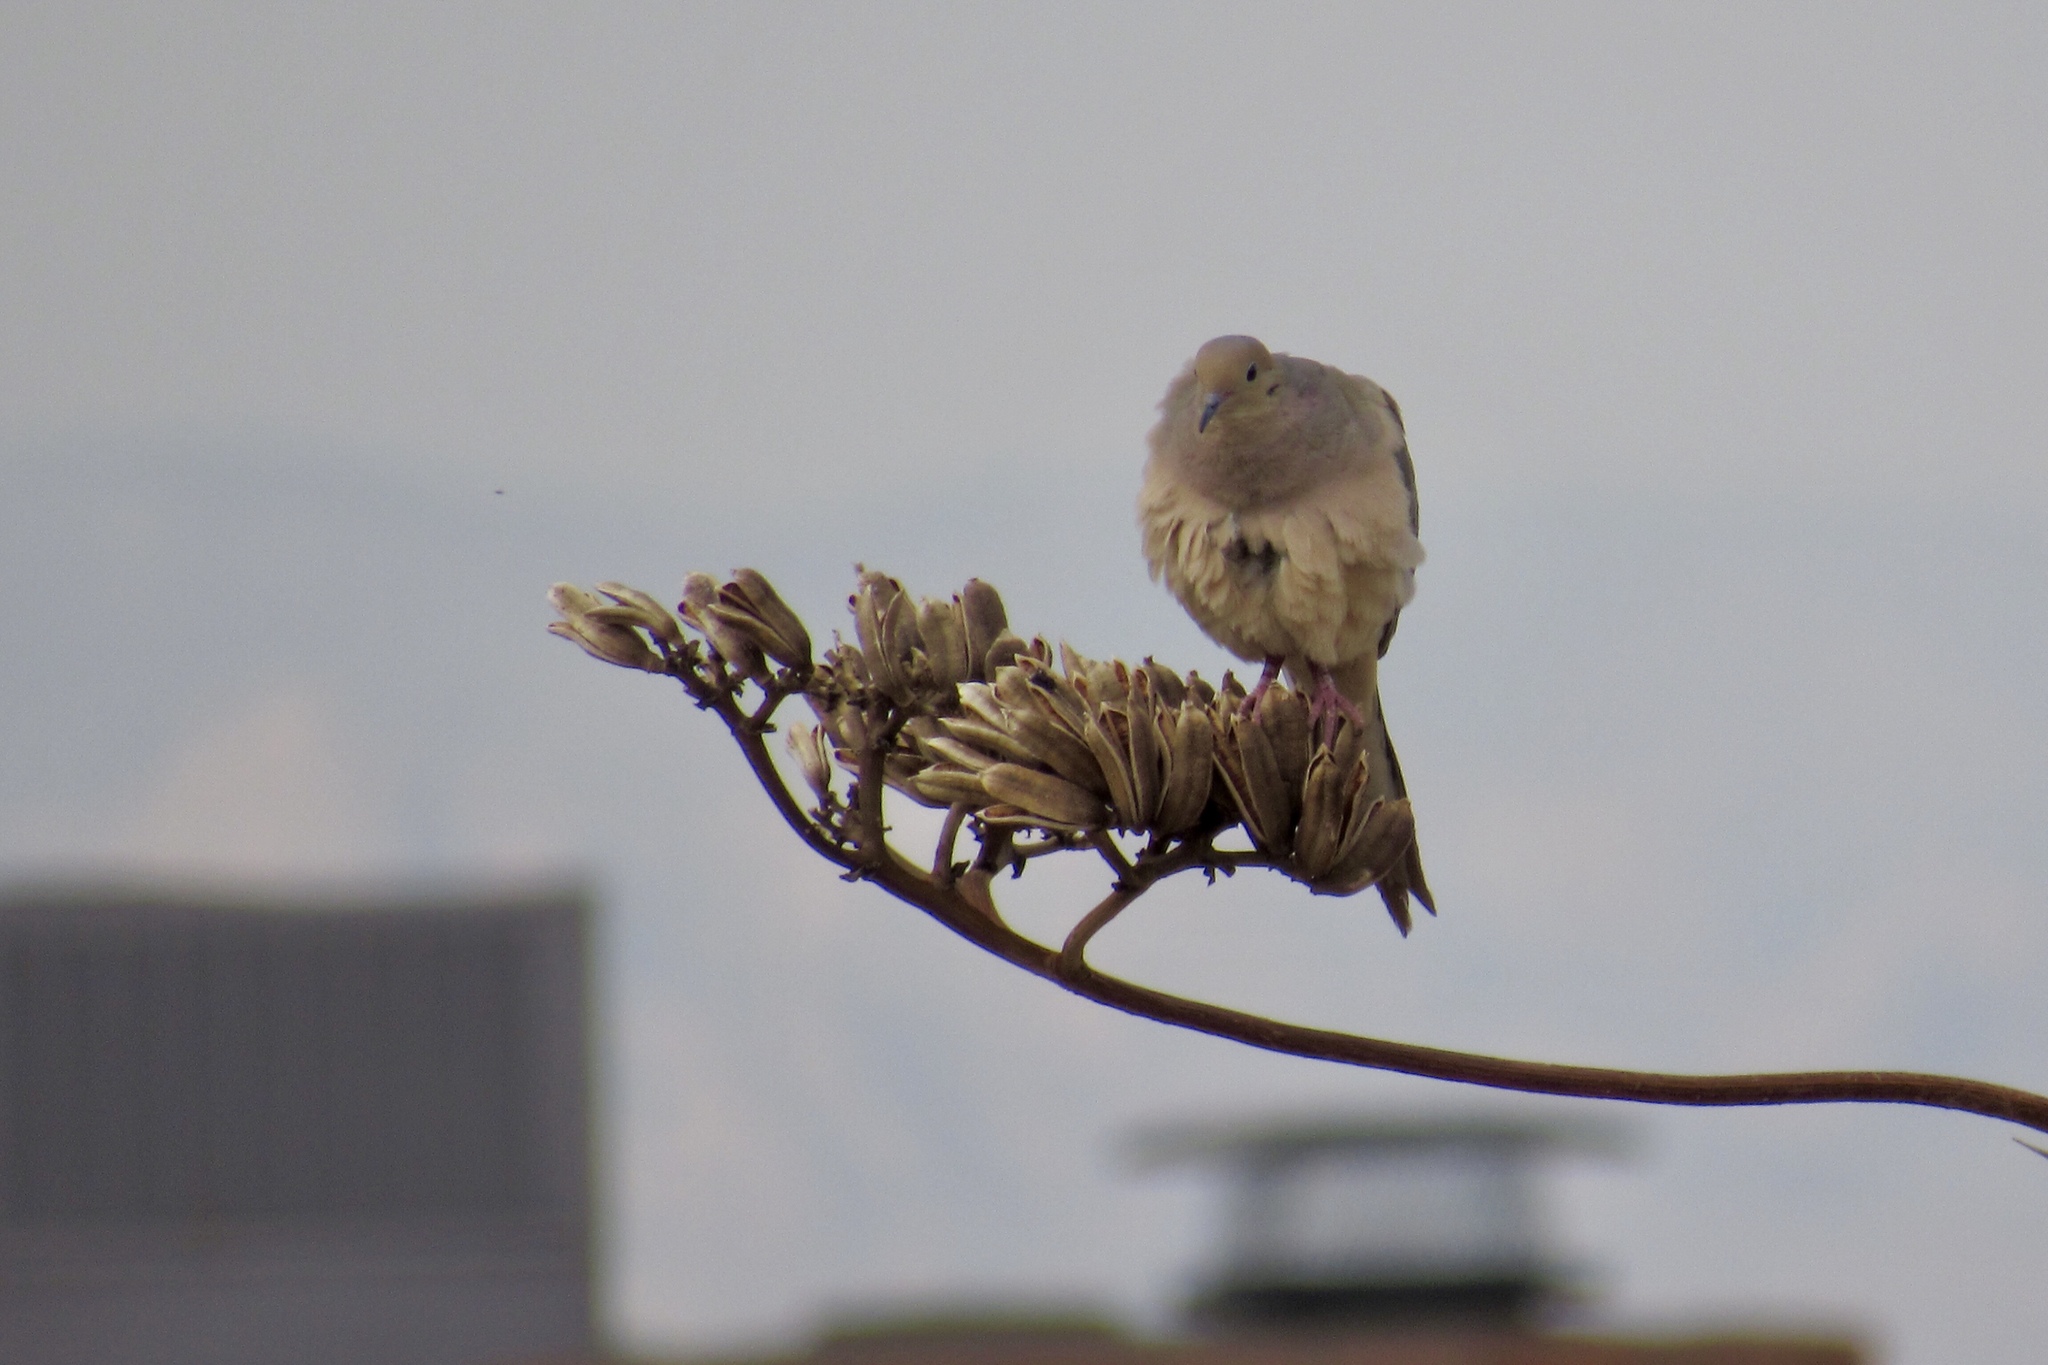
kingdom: Animalia
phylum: Chordata
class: Aves
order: Columbiformes
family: Columbidae
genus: Zenaida
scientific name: Zenaida macroura
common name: Mourning dove
